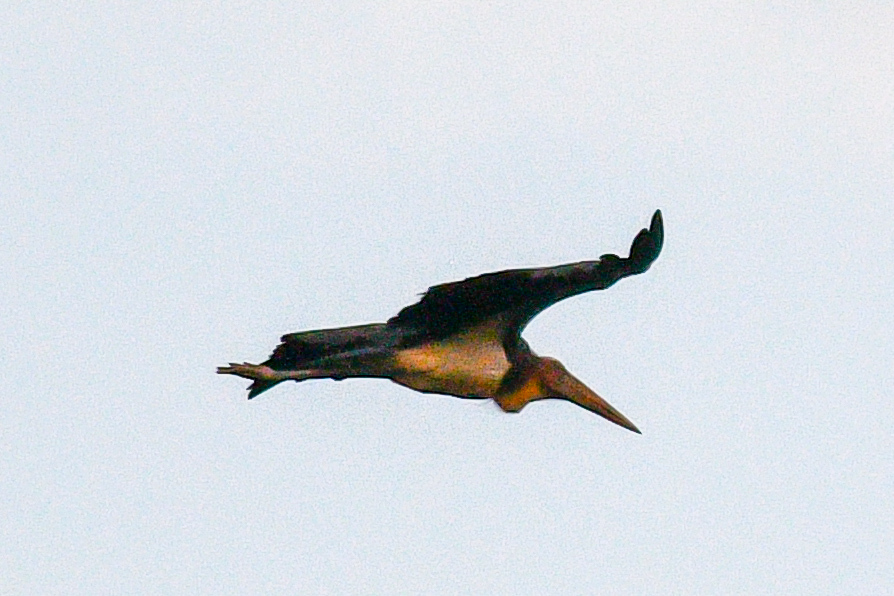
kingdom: Animalia
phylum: Chordata
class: Aves
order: Ciconiiformes
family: Ciconiidae
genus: Leptoptilos
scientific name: Leptoptilos javanicus
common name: Lesser adjutant
